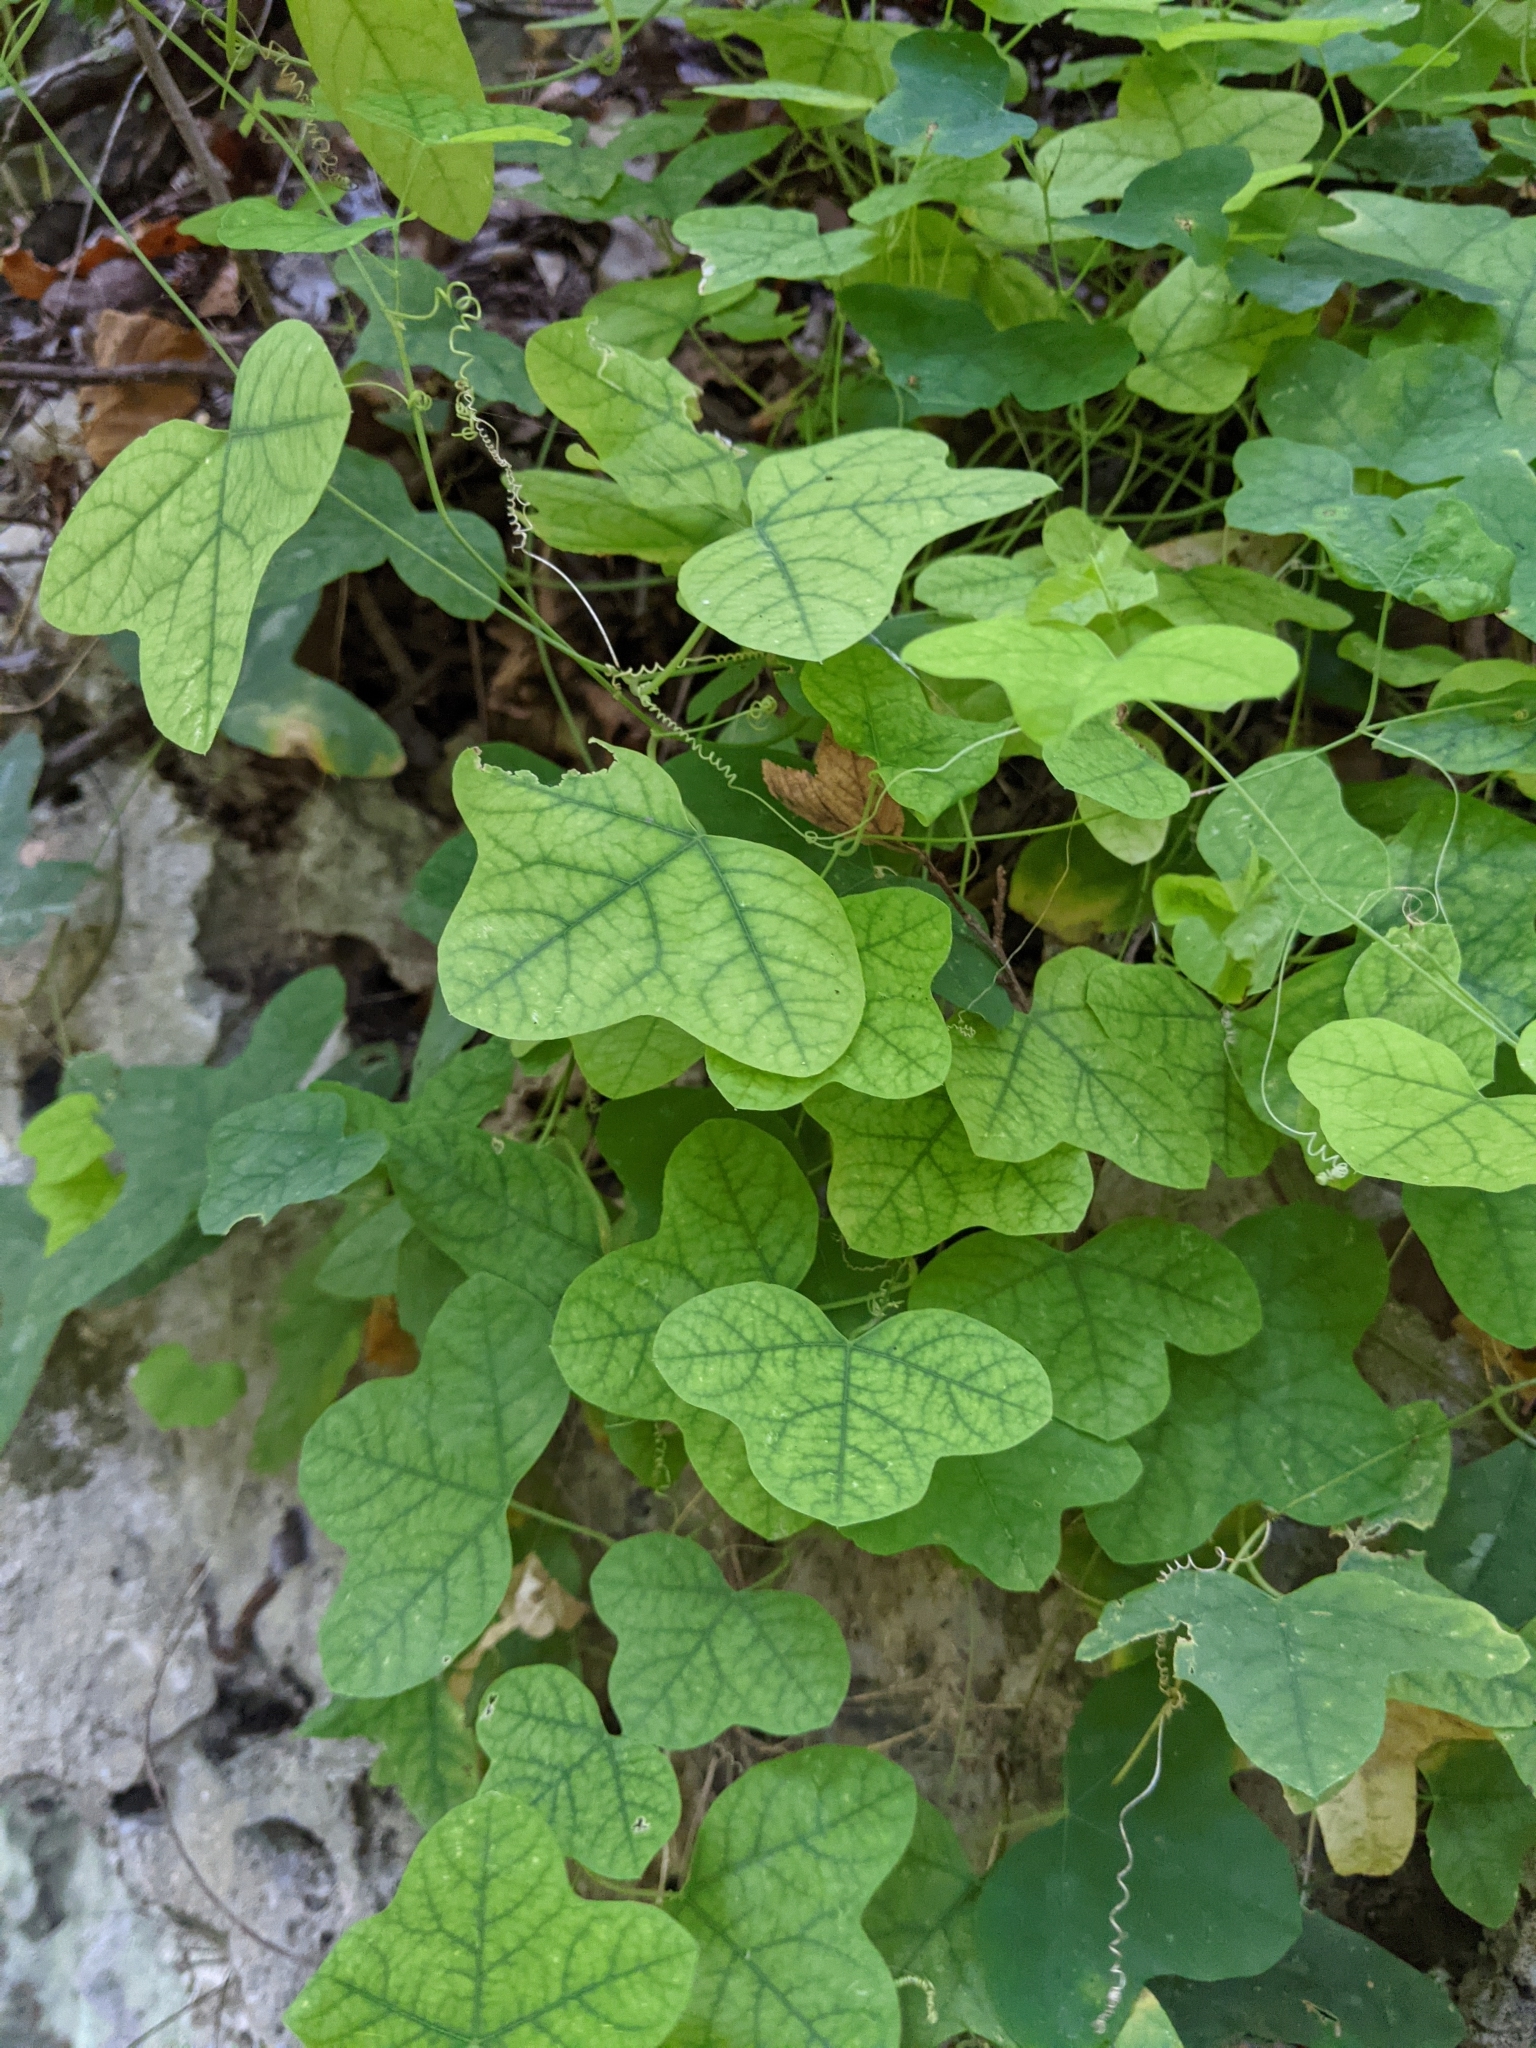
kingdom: Plantae
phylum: Tracheophyta
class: Magnoliopsida
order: Malpighiales
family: Passifloraceae
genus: Passiflora
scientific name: Passiflora lutea
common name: Yellow passionflower
